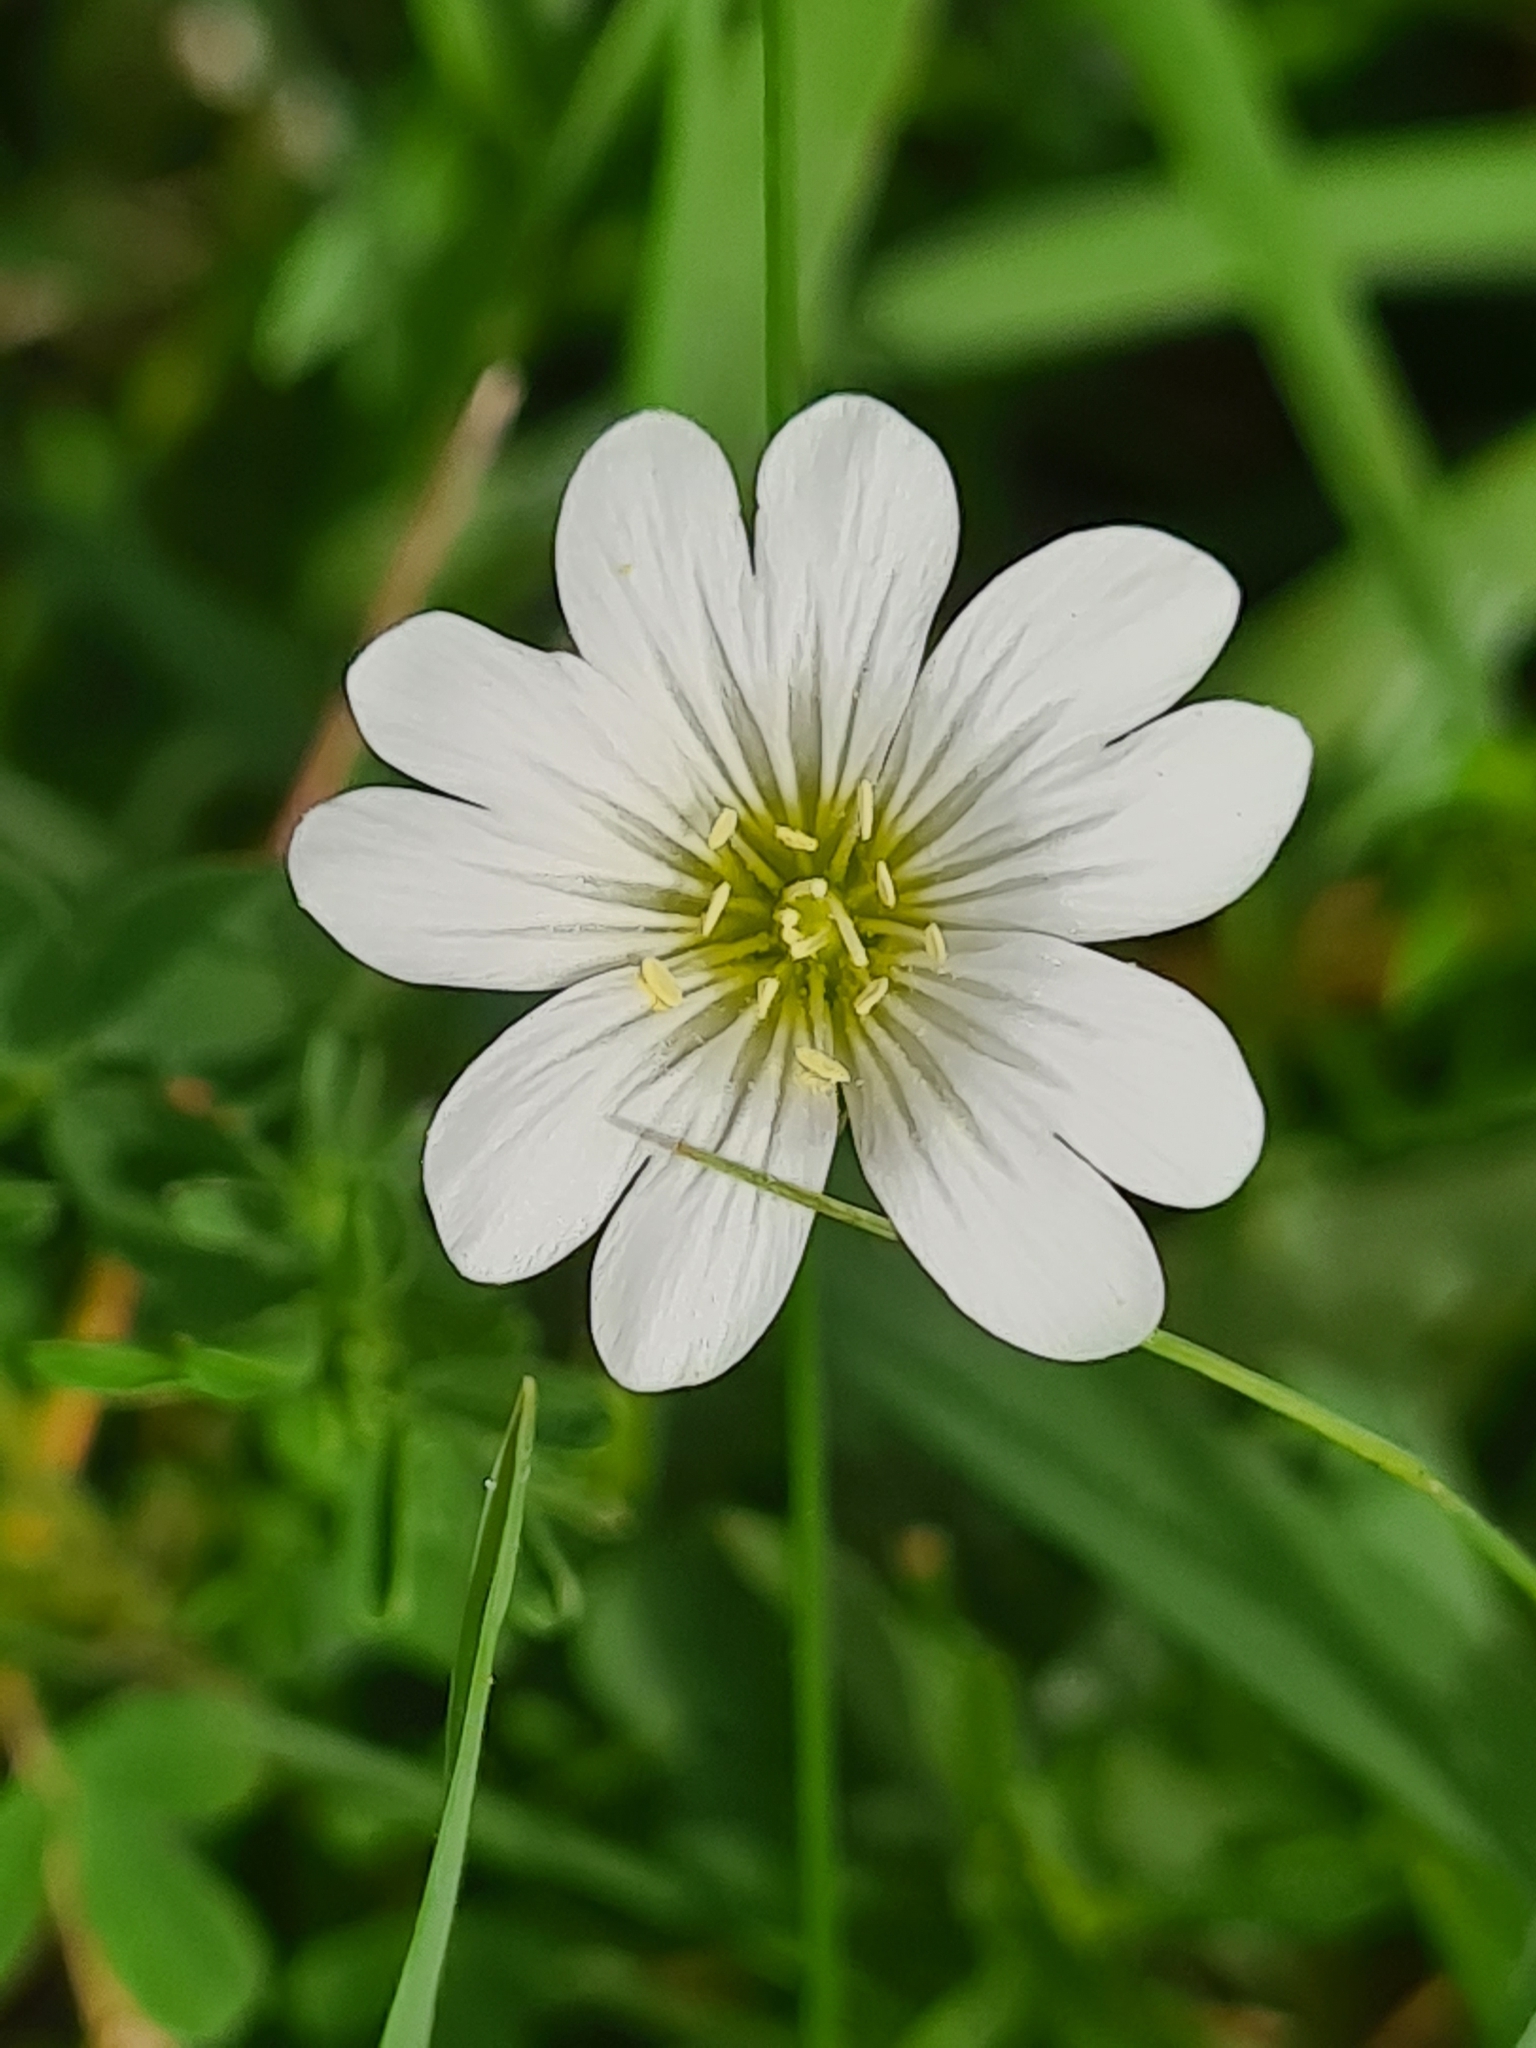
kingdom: Plantae
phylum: Tracheophyta
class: Magnoliopsida
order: Caryophyllales
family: Caryophyllaceae
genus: Cerastium
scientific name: Cerastium arvense
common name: Field mouse-ear
